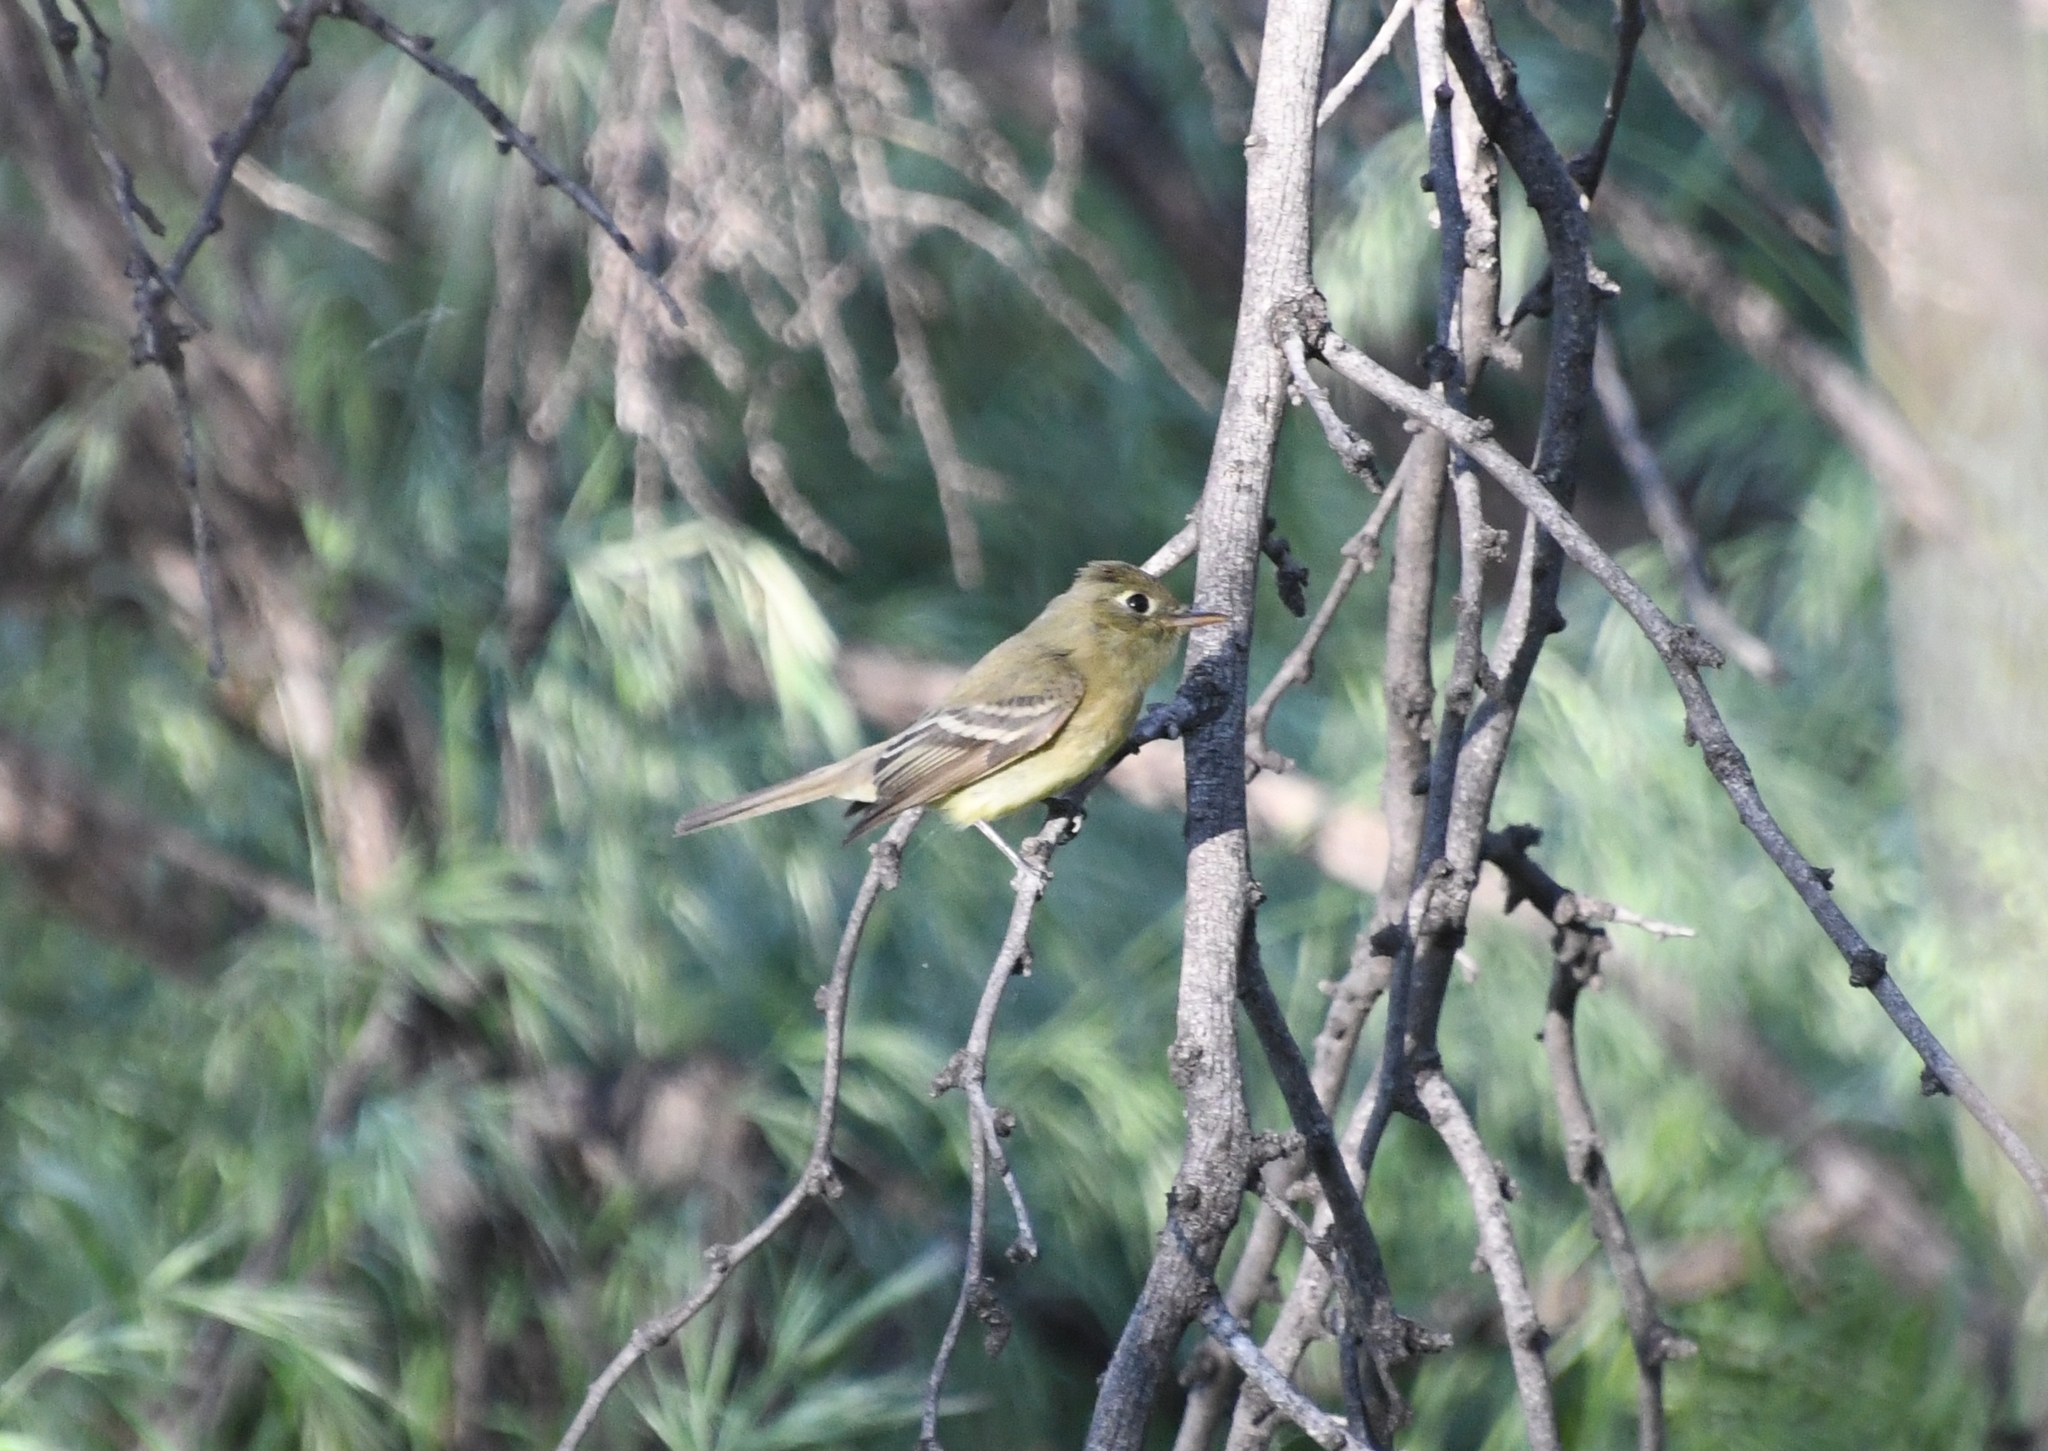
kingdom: Animalia
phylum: Chordata
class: Aves
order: Passeriformes
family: Tyrannidae
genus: Empidonax
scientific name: Empidonax difficilis
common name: Pacific-slope flycatcher
